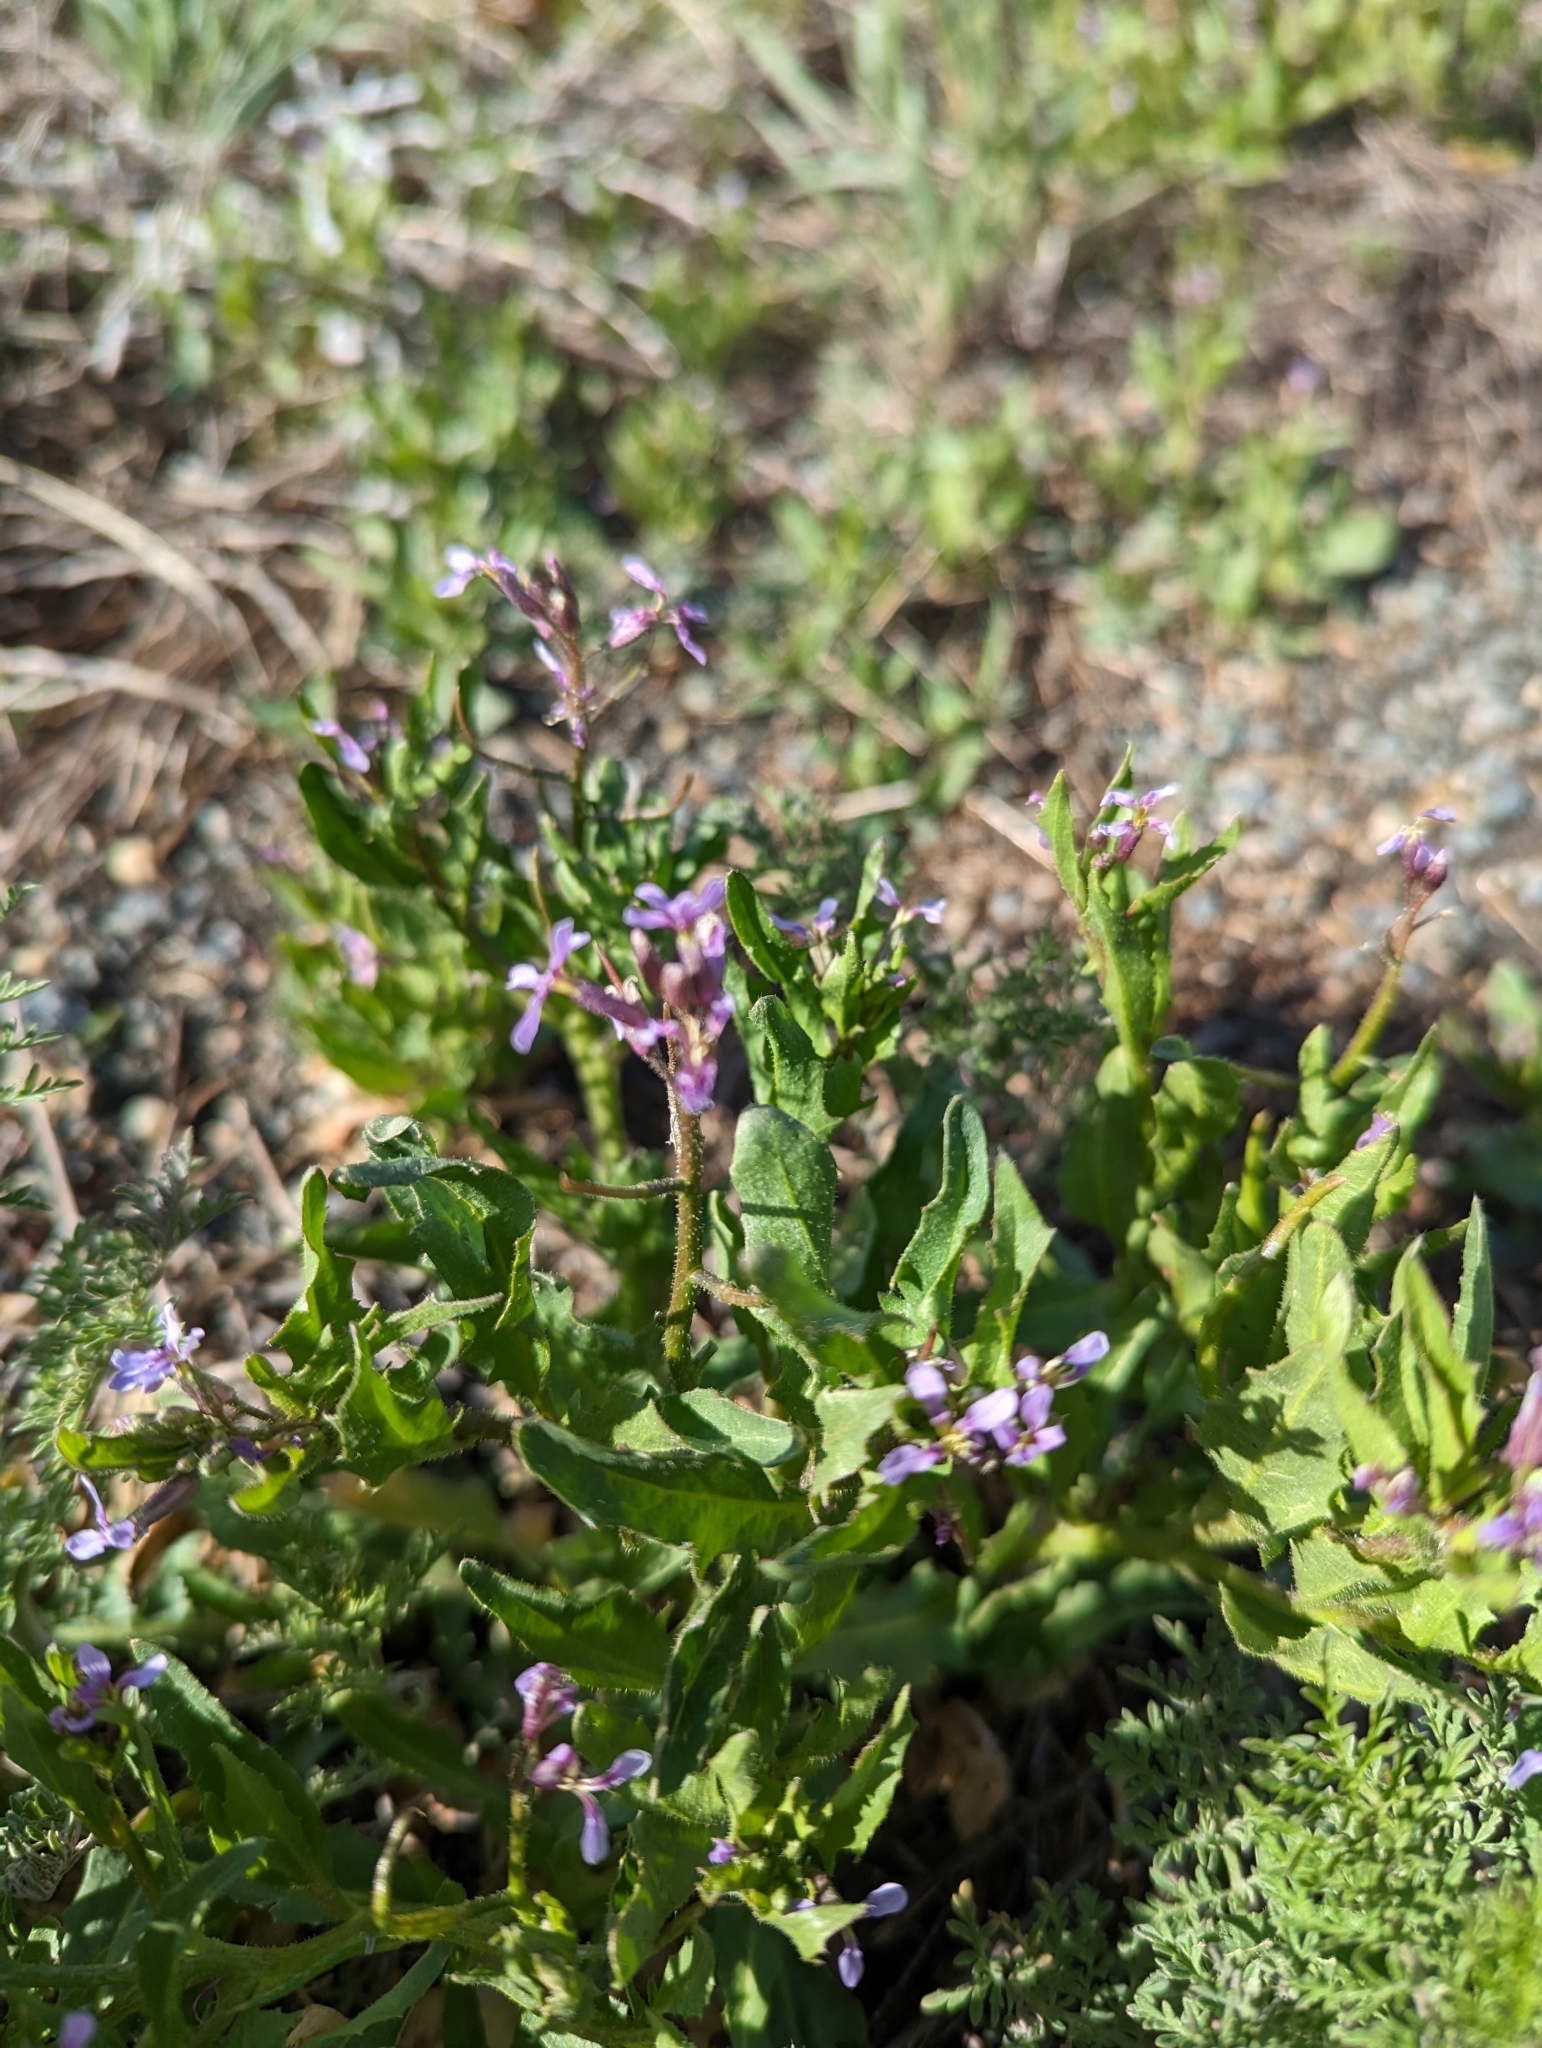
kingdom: Plantae
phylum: Tracheophyta
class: Magnoliopsida
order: Brassicales
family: Brassicaceae
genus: Chorispora
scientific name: Chorispora tenella
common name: Crossflower
